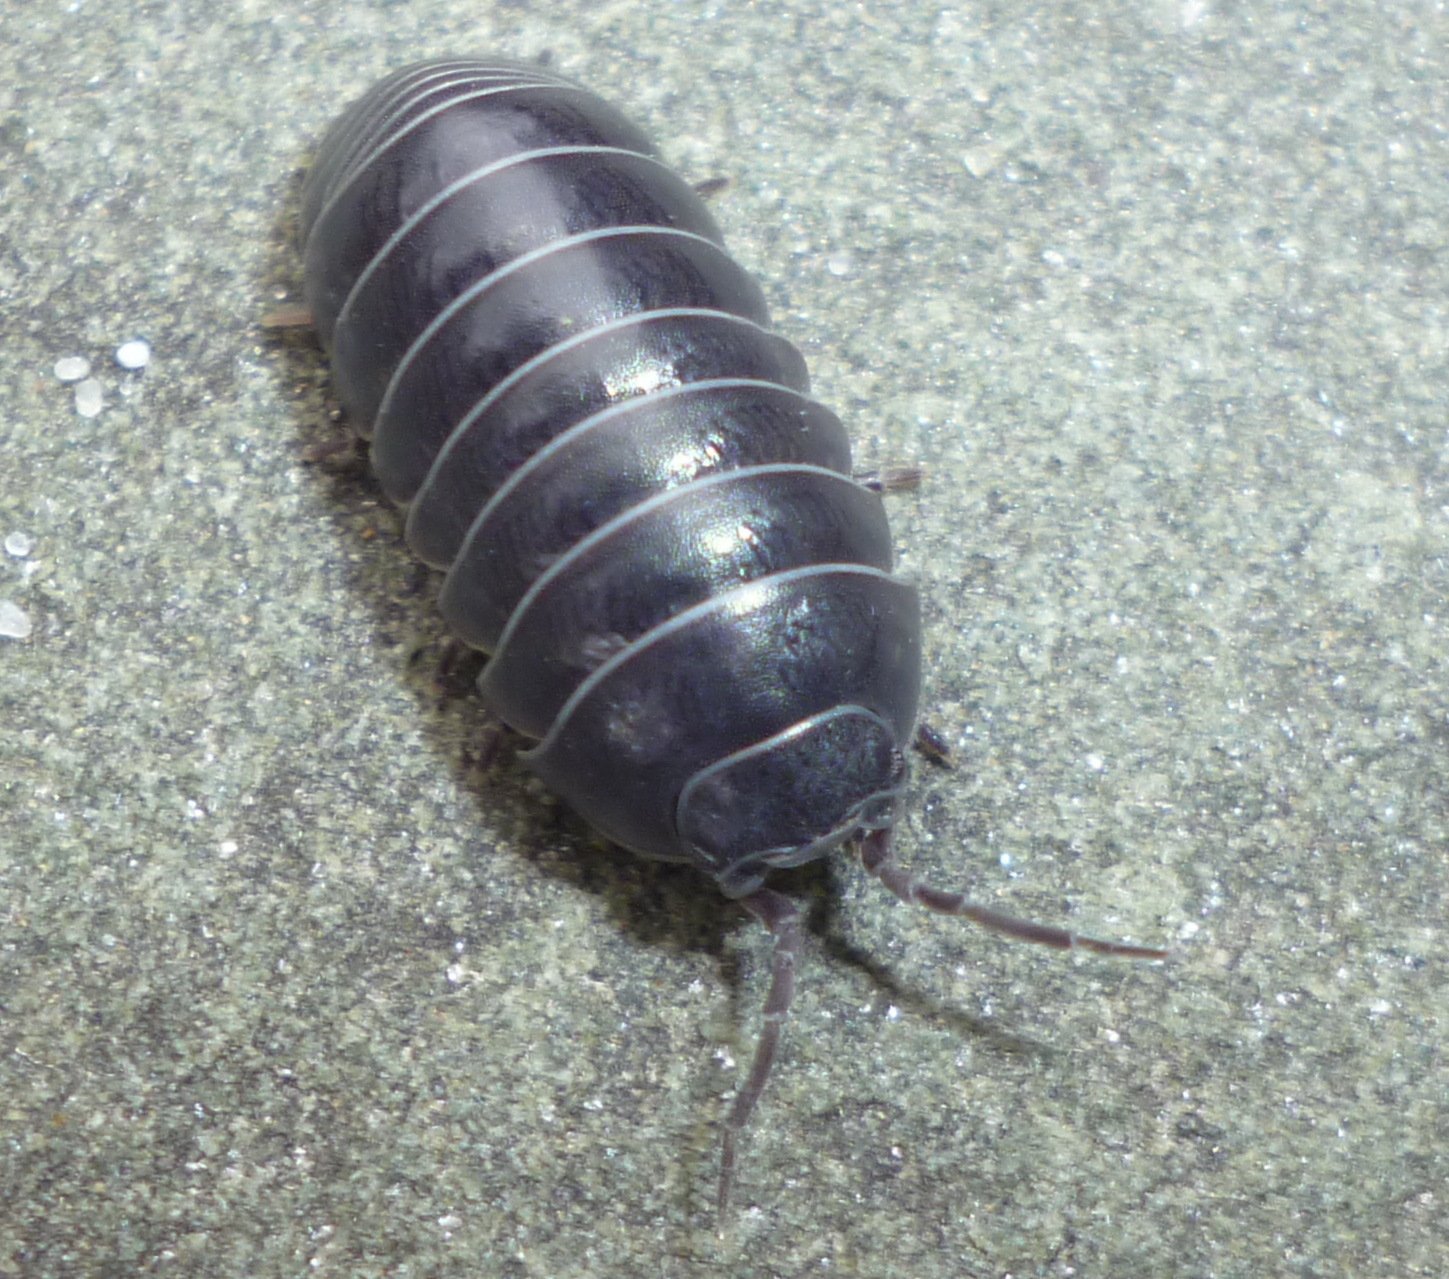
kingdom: Animalia
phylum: Arthropoda
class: Malacostraca
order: Isopoda
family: Armadillidiidae
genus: Armadillidium
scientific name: Armadillidium vulgare
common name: Common pill woodlouse
